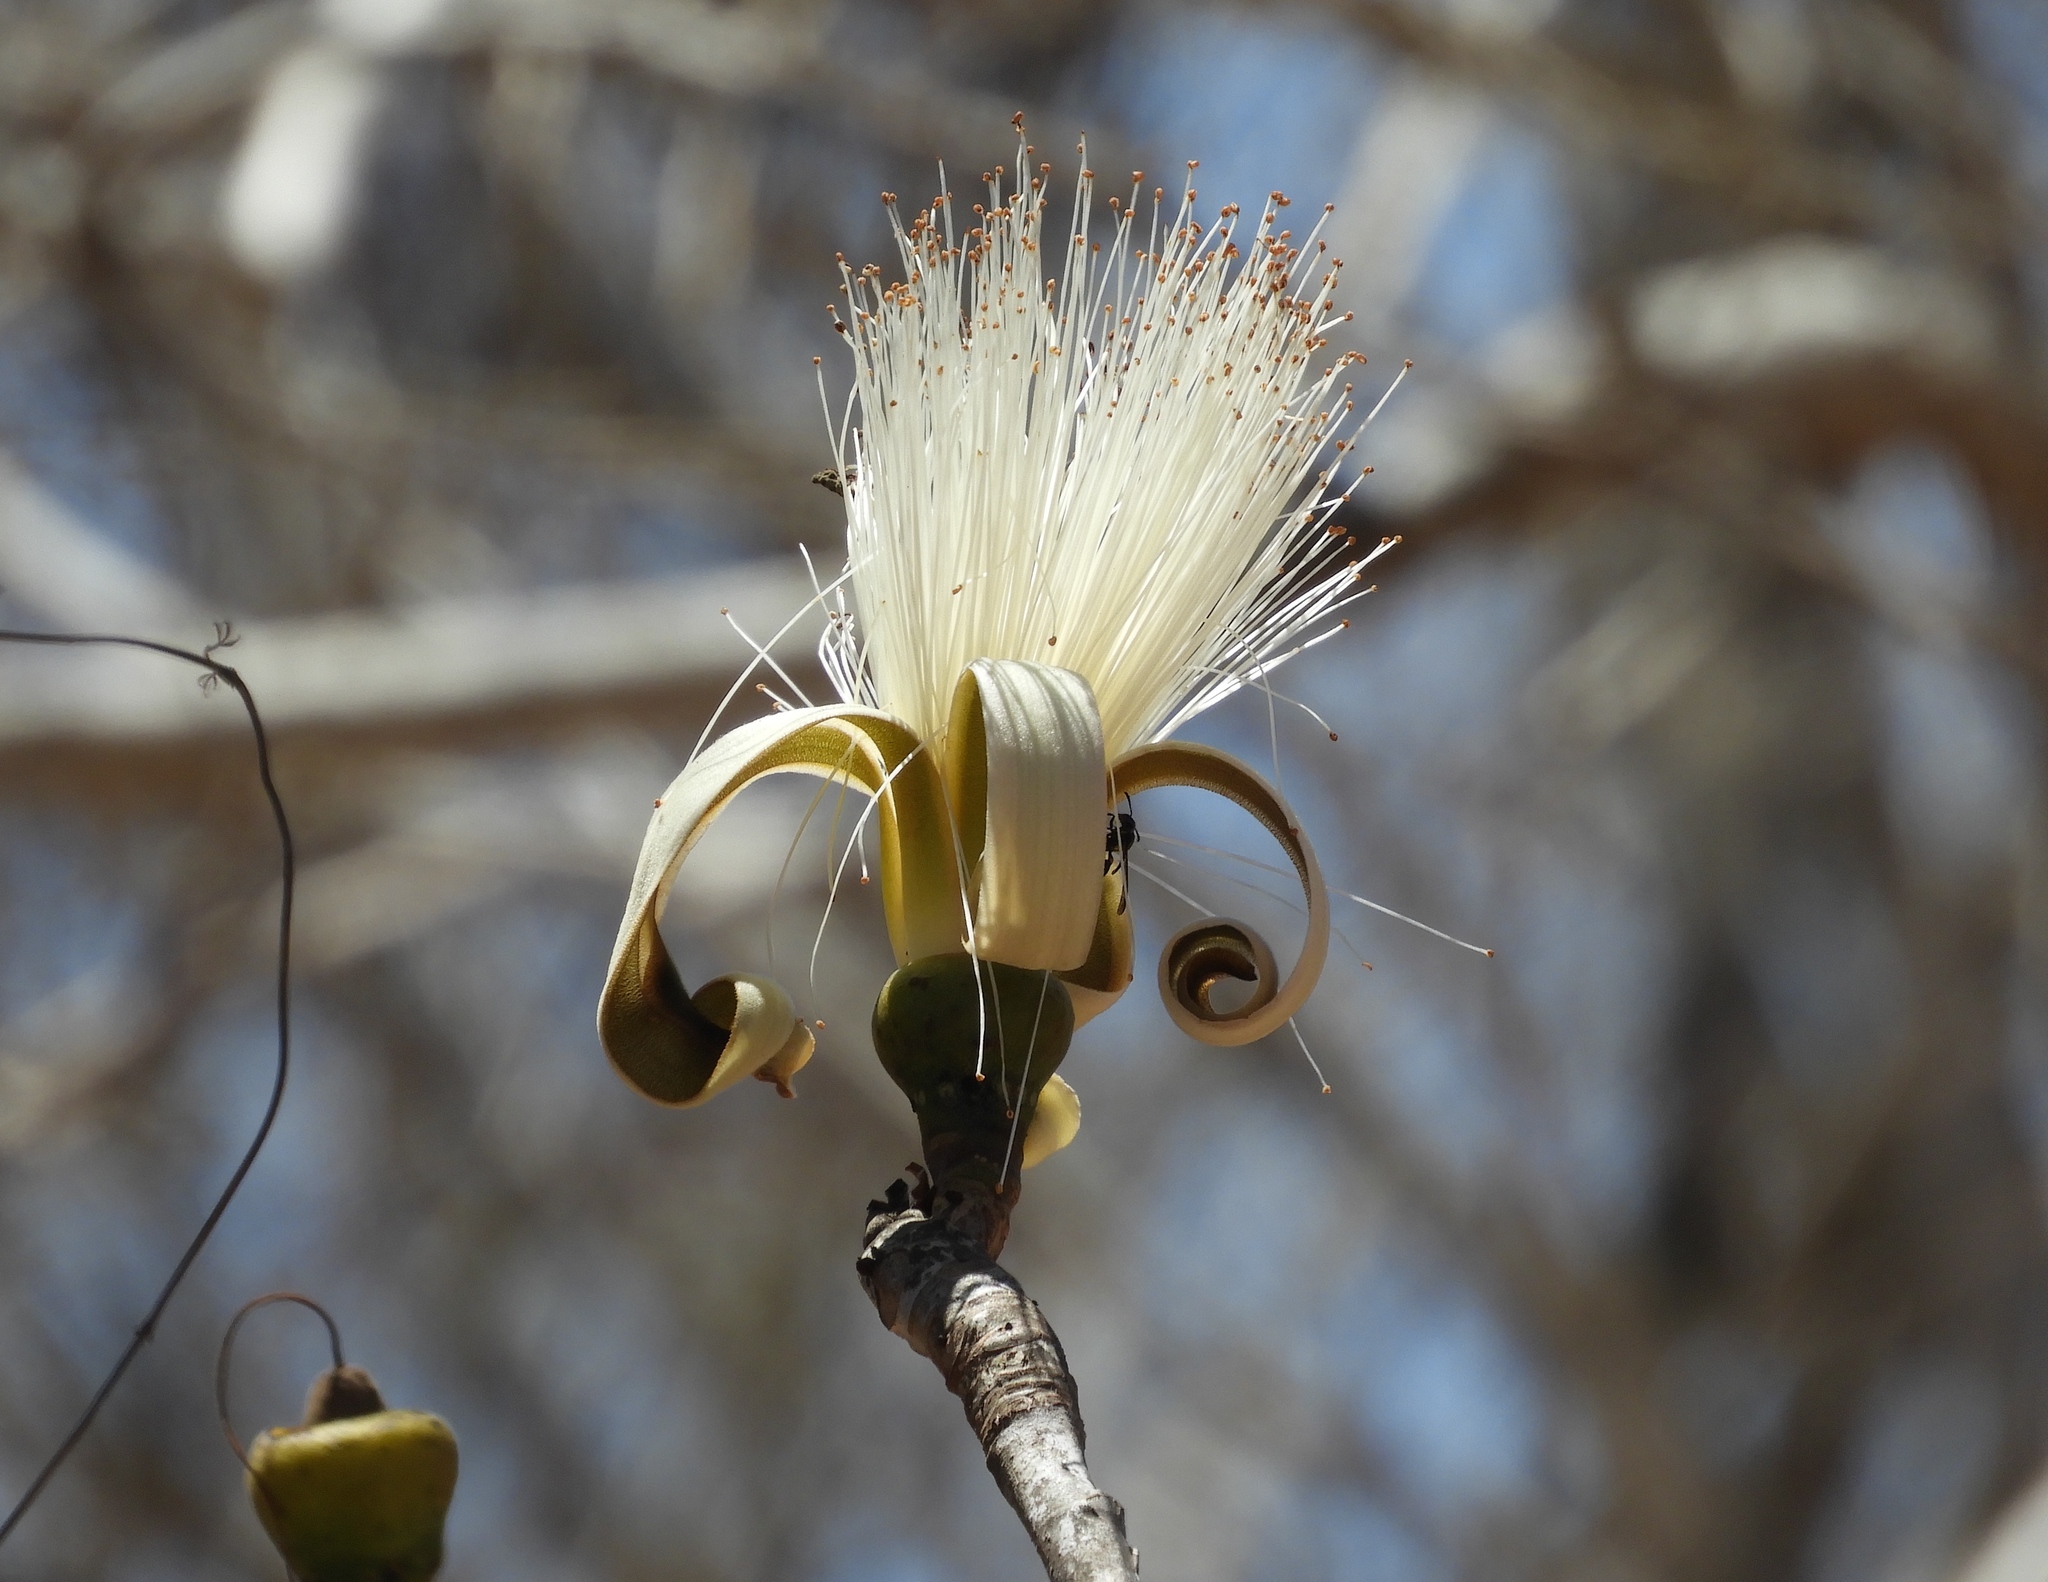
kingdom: Plantae
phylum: Tracheophyta
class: Magnoliopsida
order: Malvales
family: Malvaceae
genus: Pseudobombax
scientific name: Pseudobombax ellipticum
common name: Shaving-brush-tree
